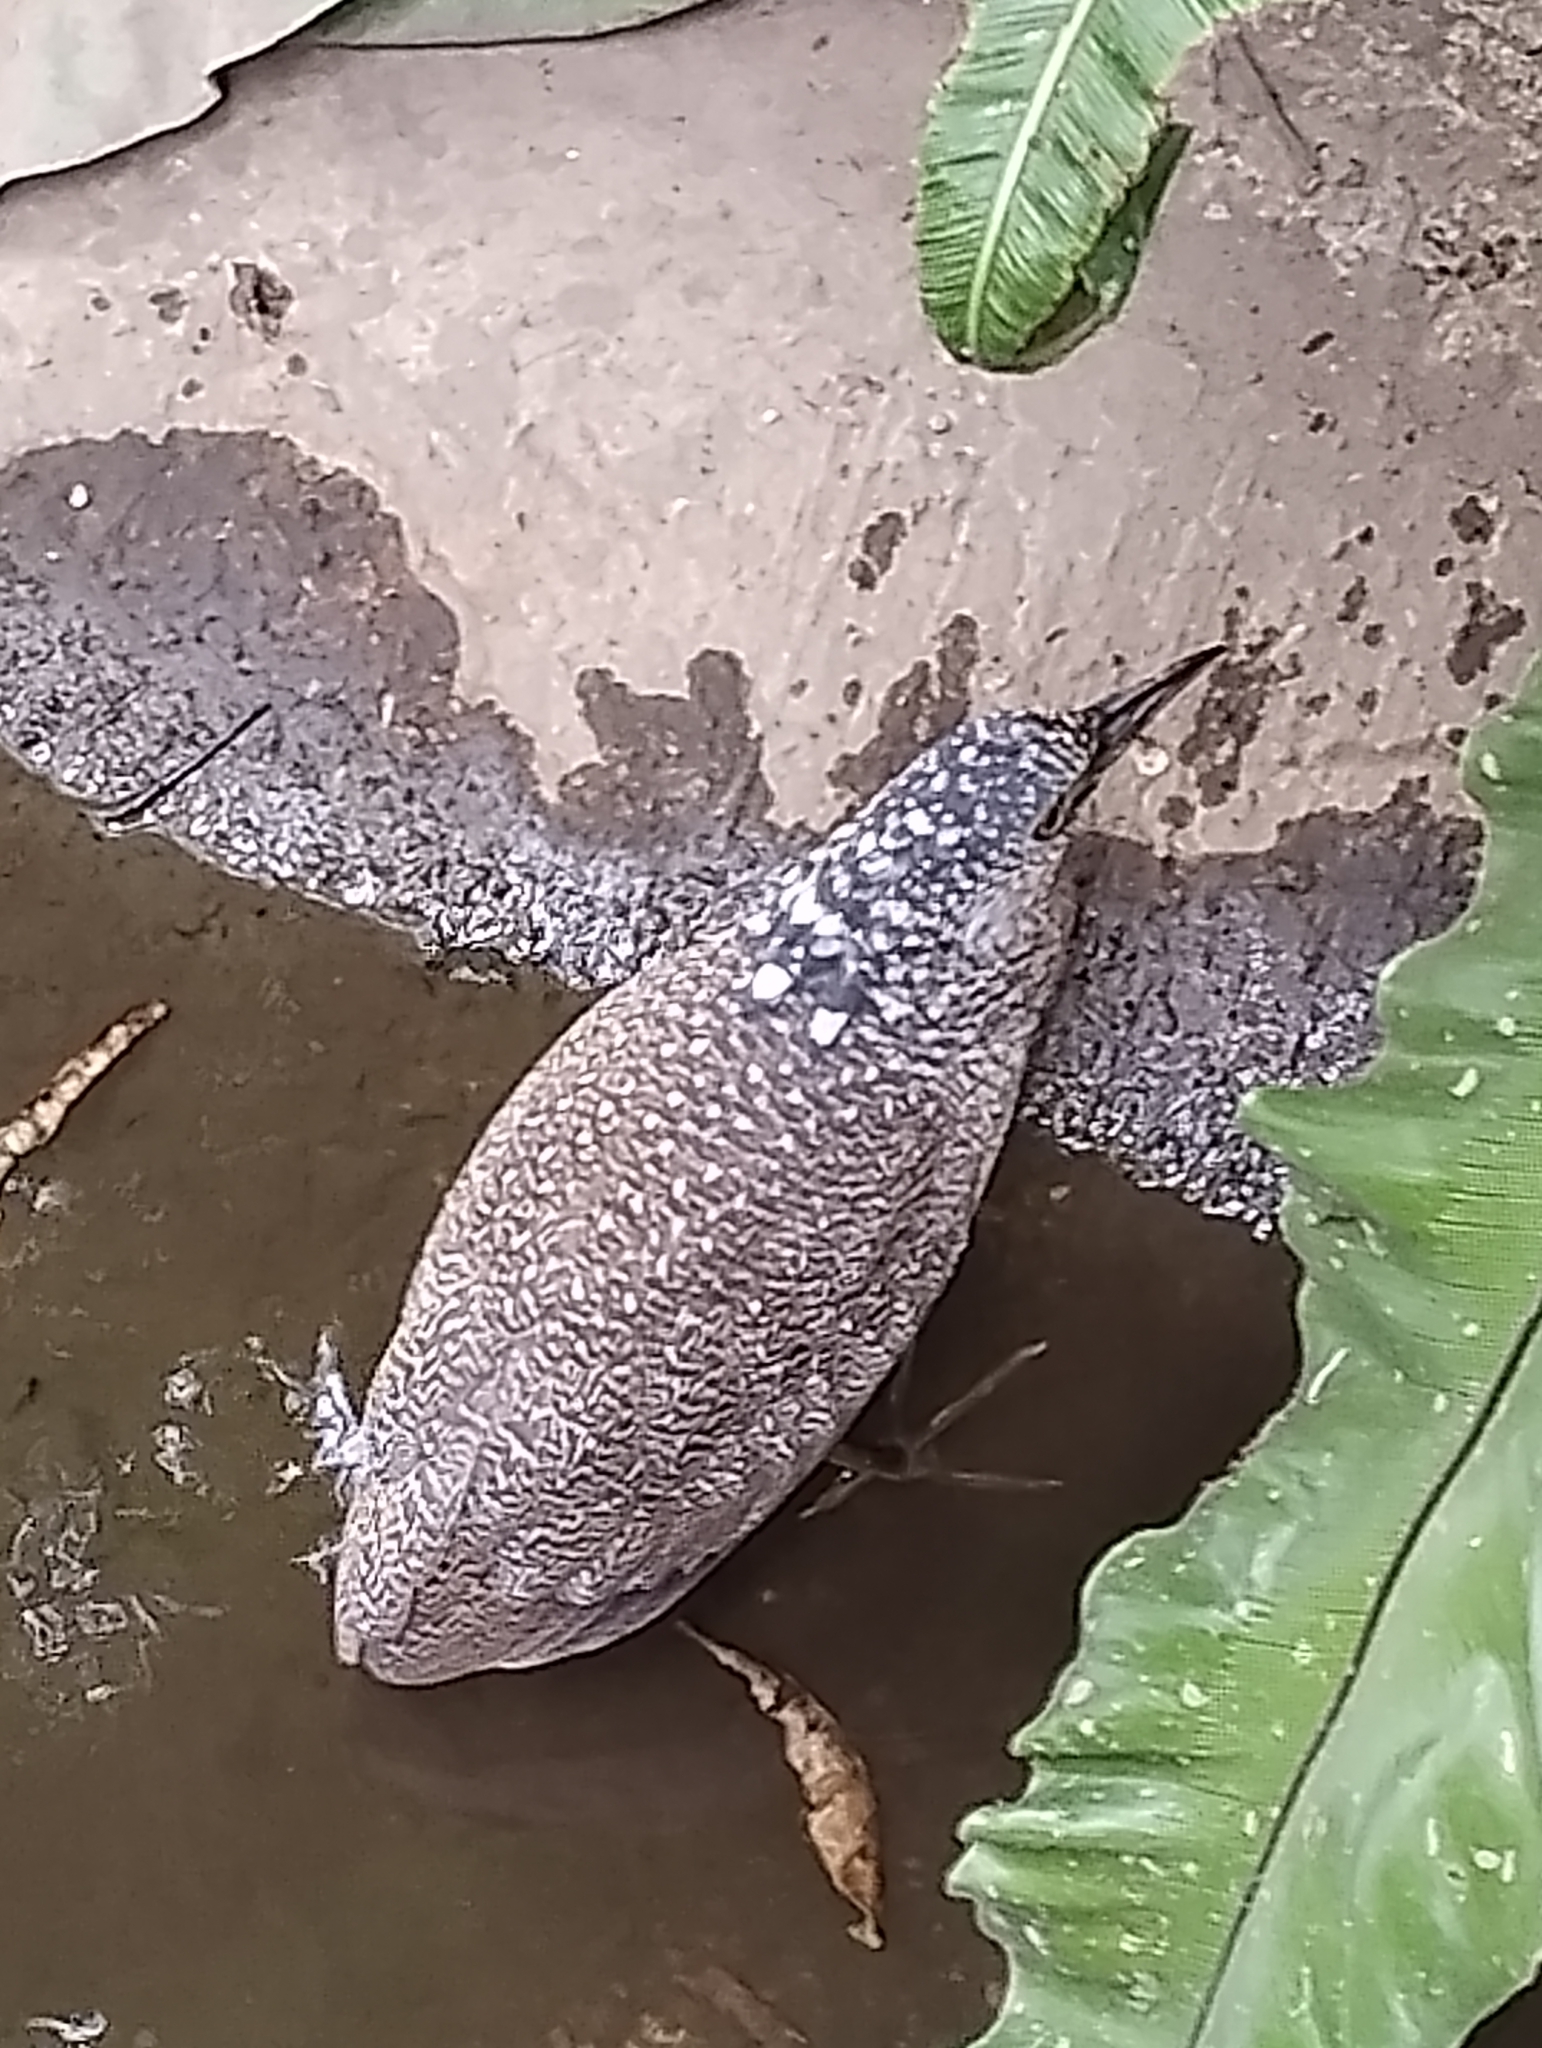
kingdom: Animalia
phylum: Chordata
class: Aves
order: Pelecaniformes
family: Ardeidae
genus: Gorsachius
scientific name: Gorsachius melanolophus
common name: Malayan night heron
